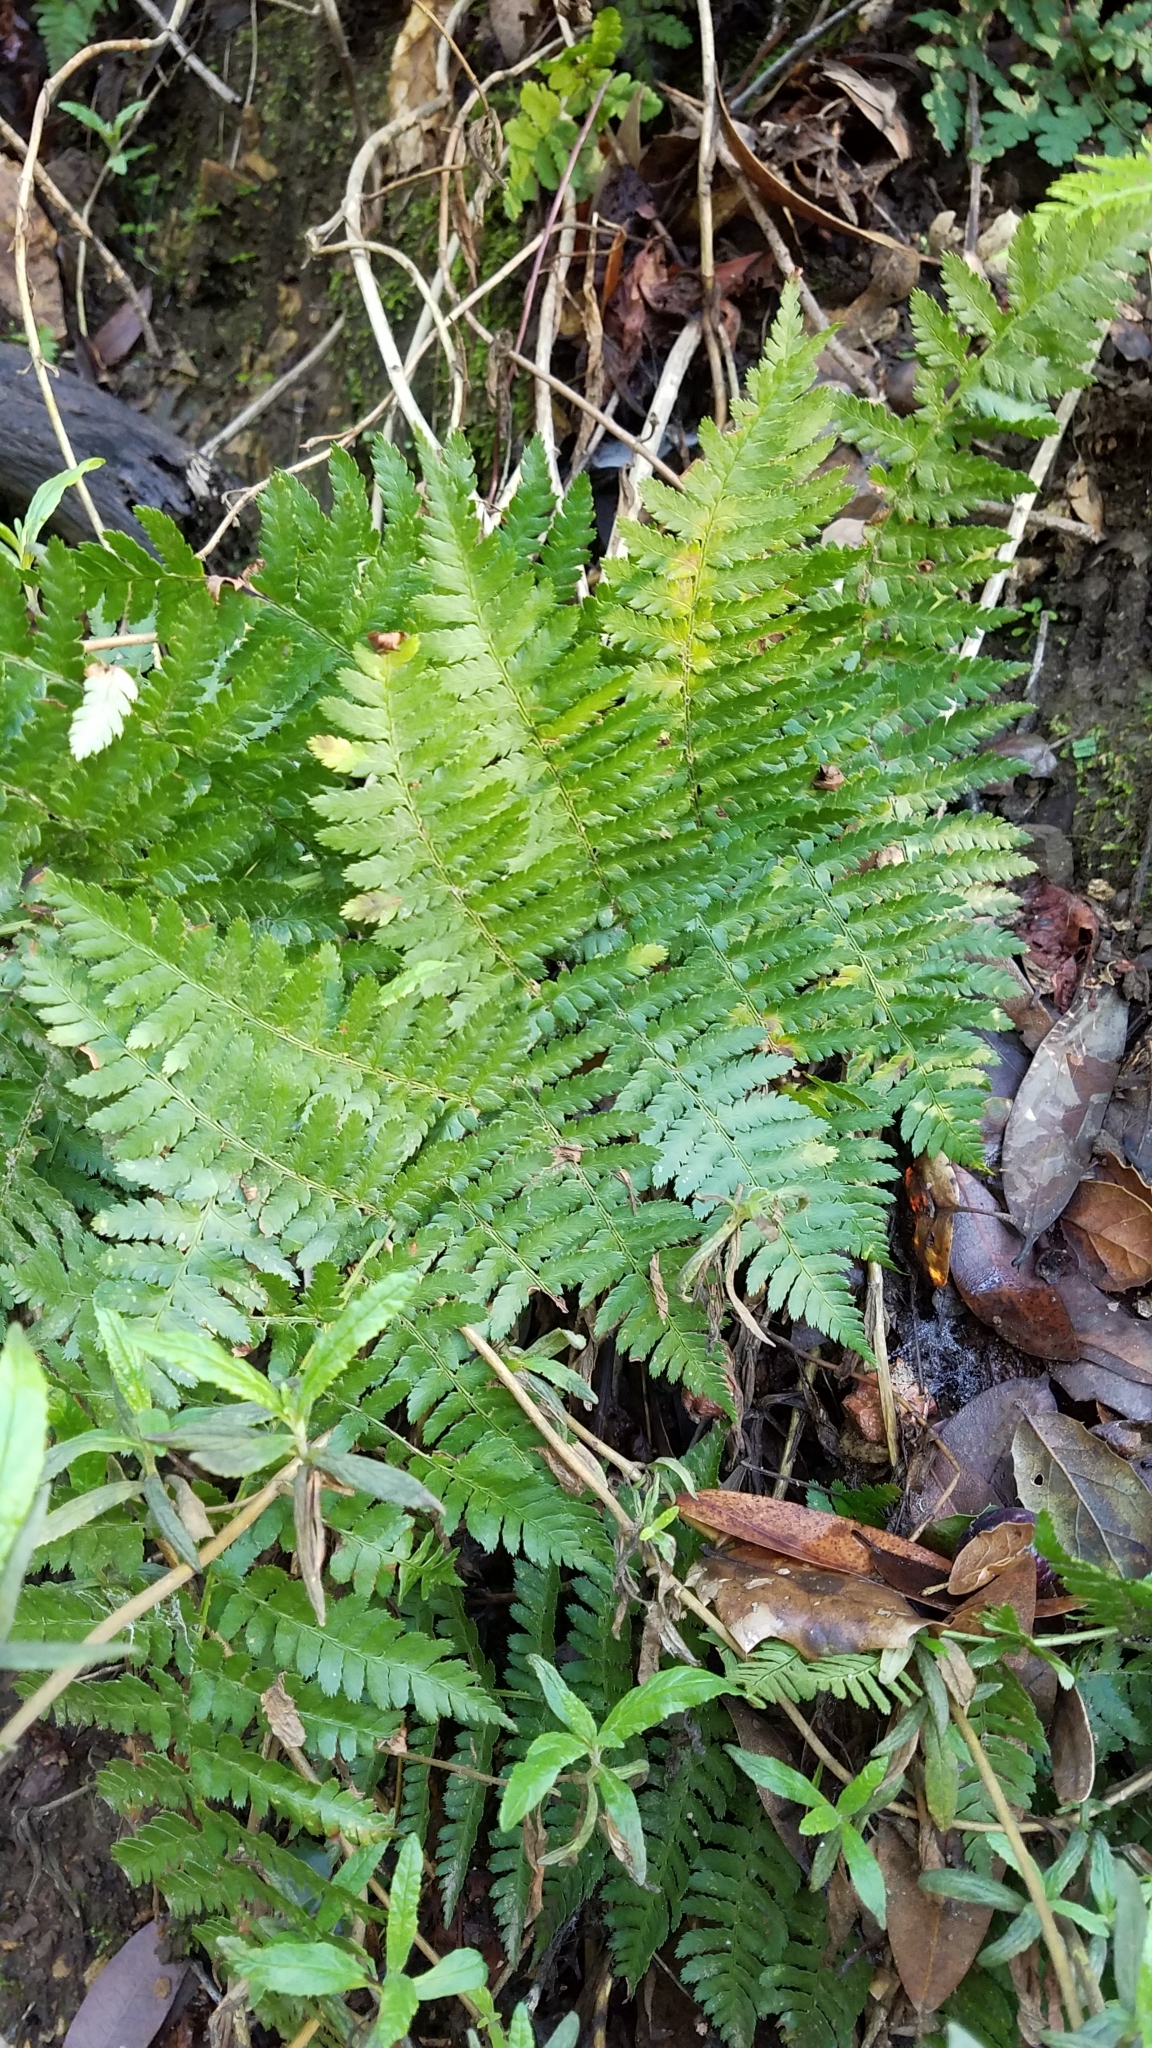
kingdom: Plantae
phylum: Tracheophyta
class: Polypodiopsida
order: Polypodiales
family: Dryopteridaceae
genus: Dryopteris
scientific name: Dryopteris arguta
